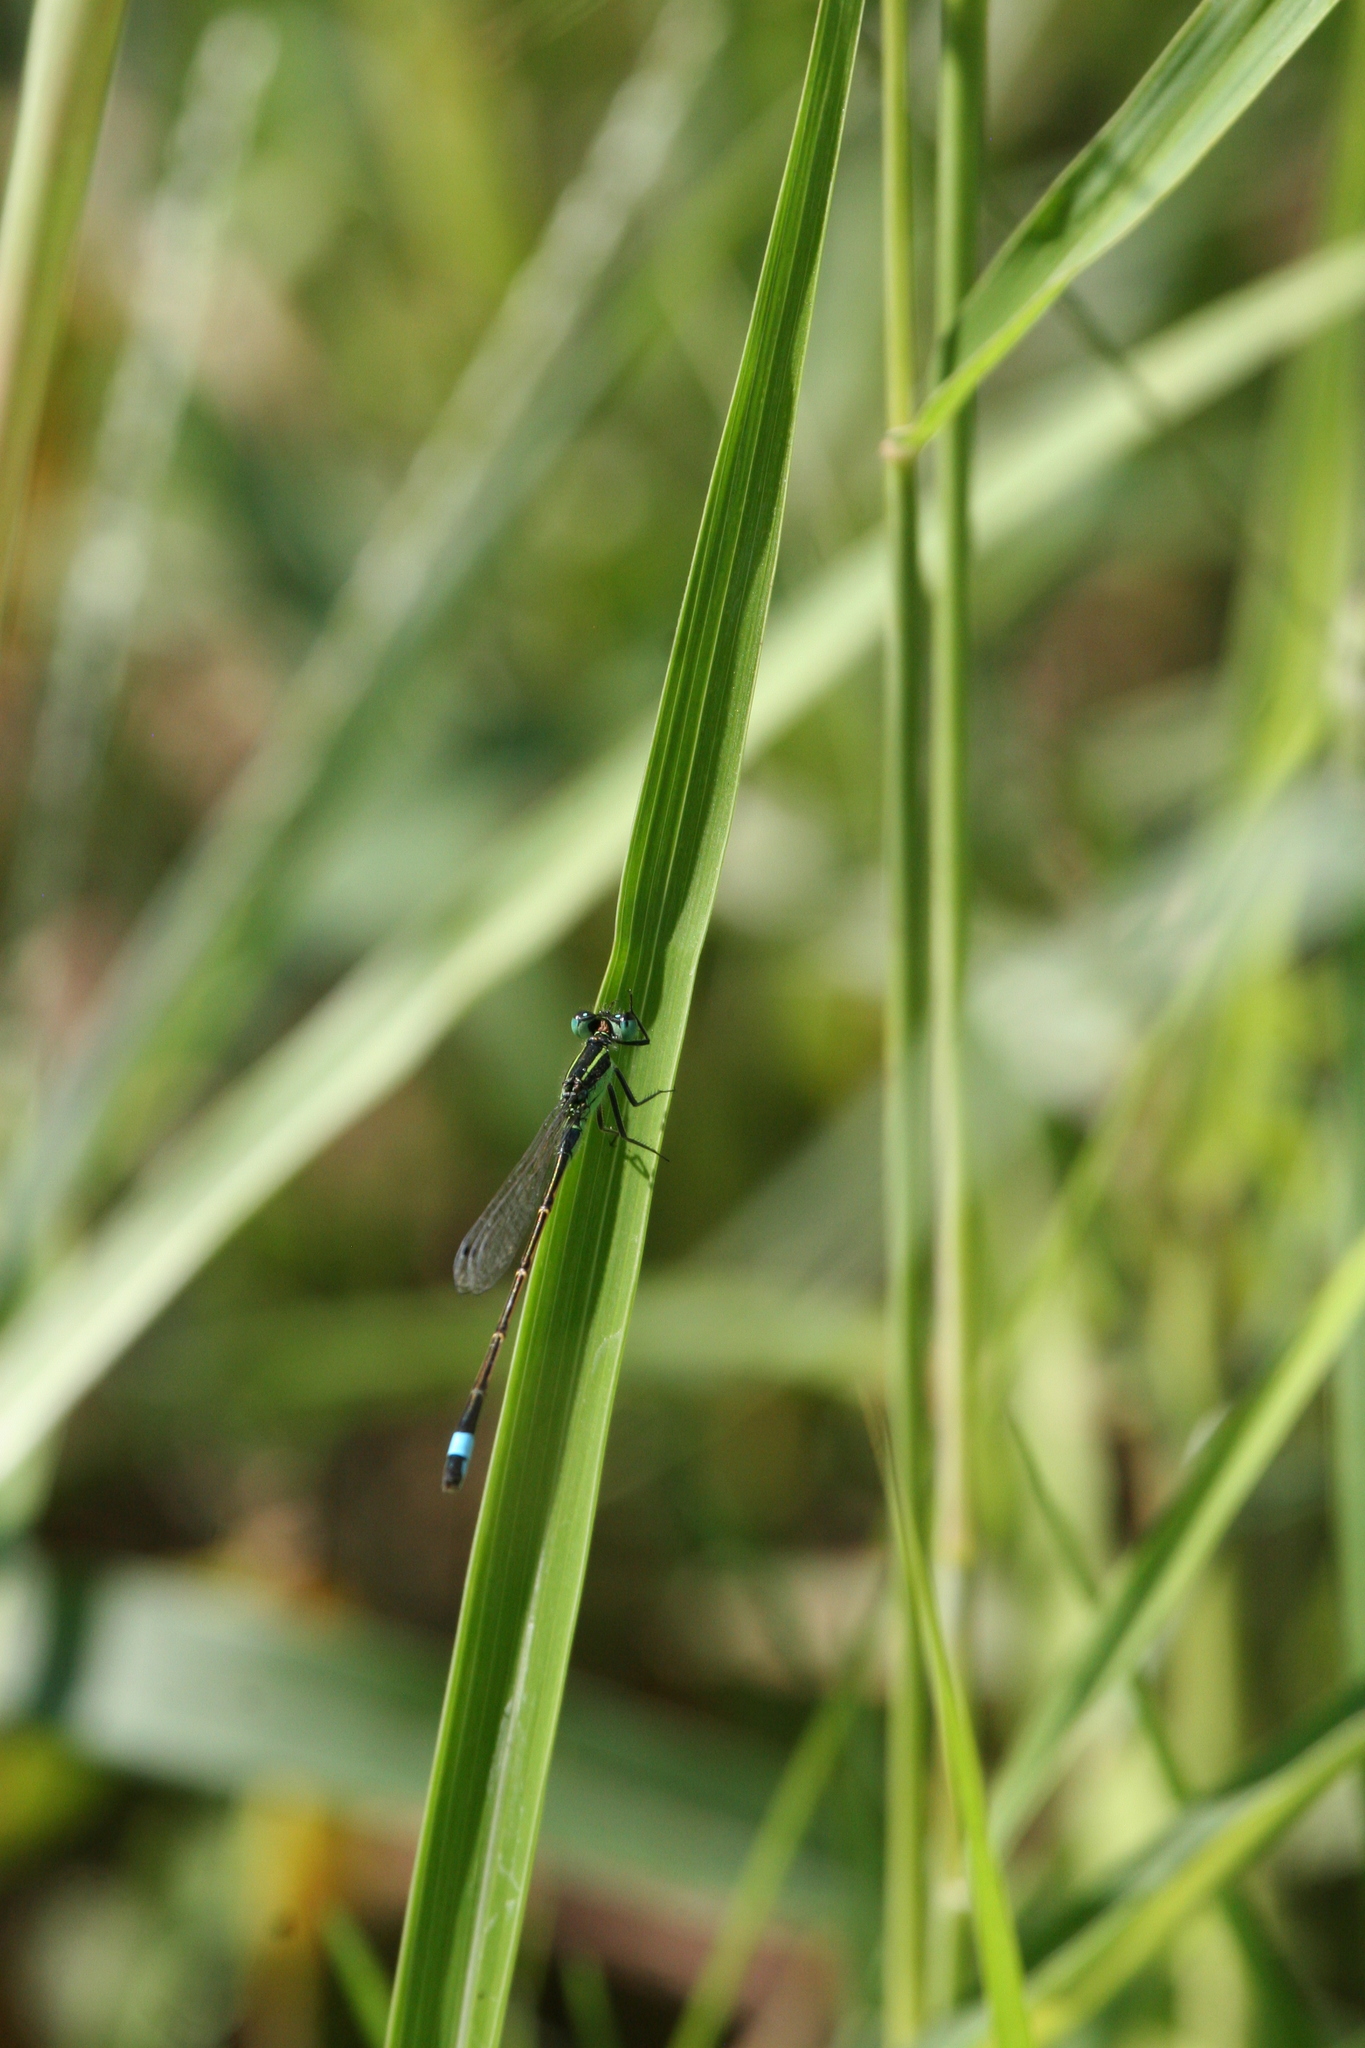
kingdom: Animalia
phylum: Arthropoda
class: Insecta
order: Odonata
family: Coenagrionidae
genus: Ischnura
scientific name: Ischnura ramburii
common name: Rambur's forktail
